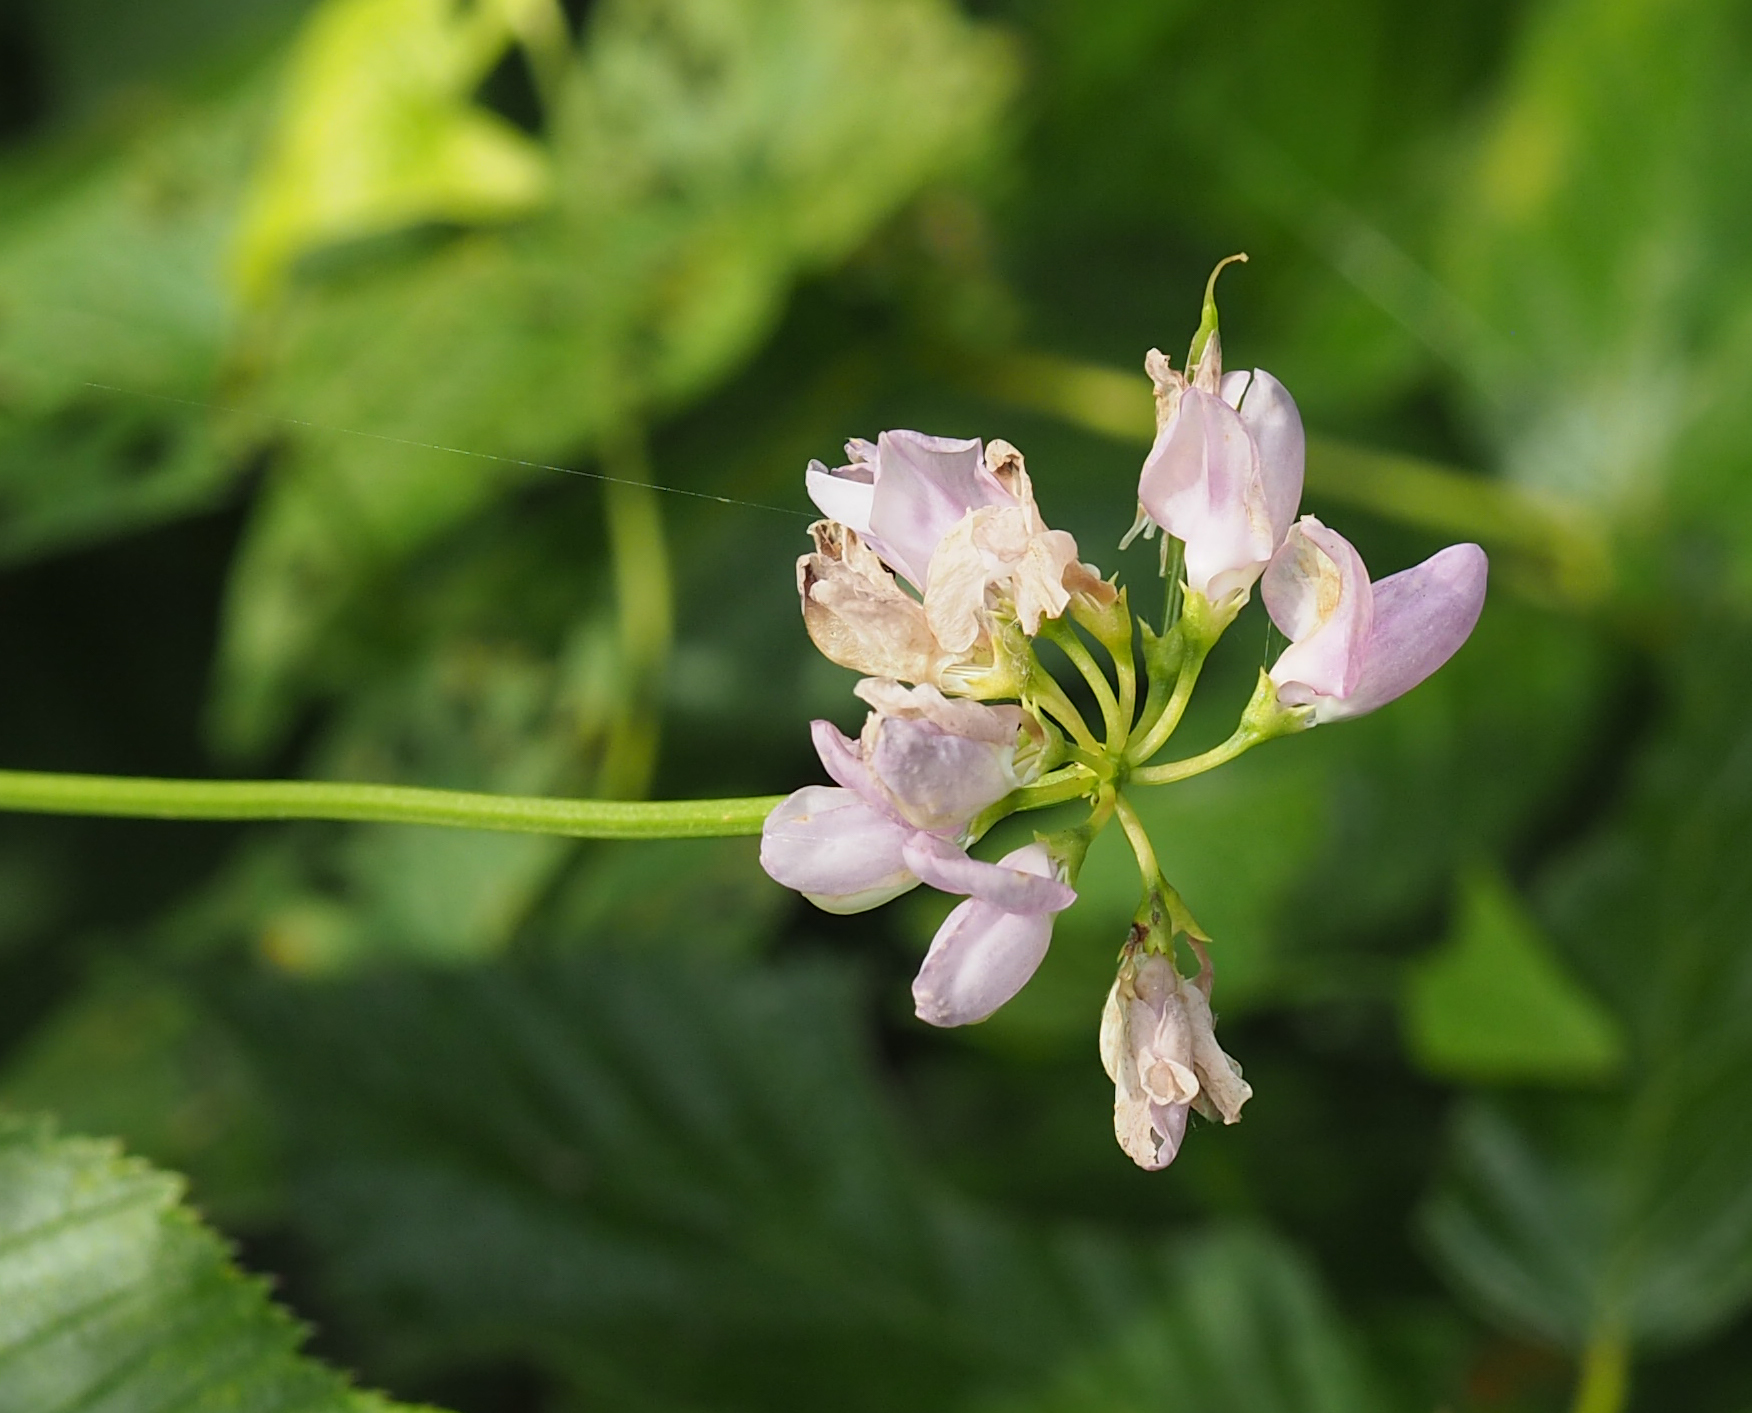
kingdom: Plantae
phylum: Tracheophyta
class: Magnoliopsida
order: Fabales
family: Fabaceae
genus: Coronilla
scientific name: Coronilla varia
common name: Crownvetch
